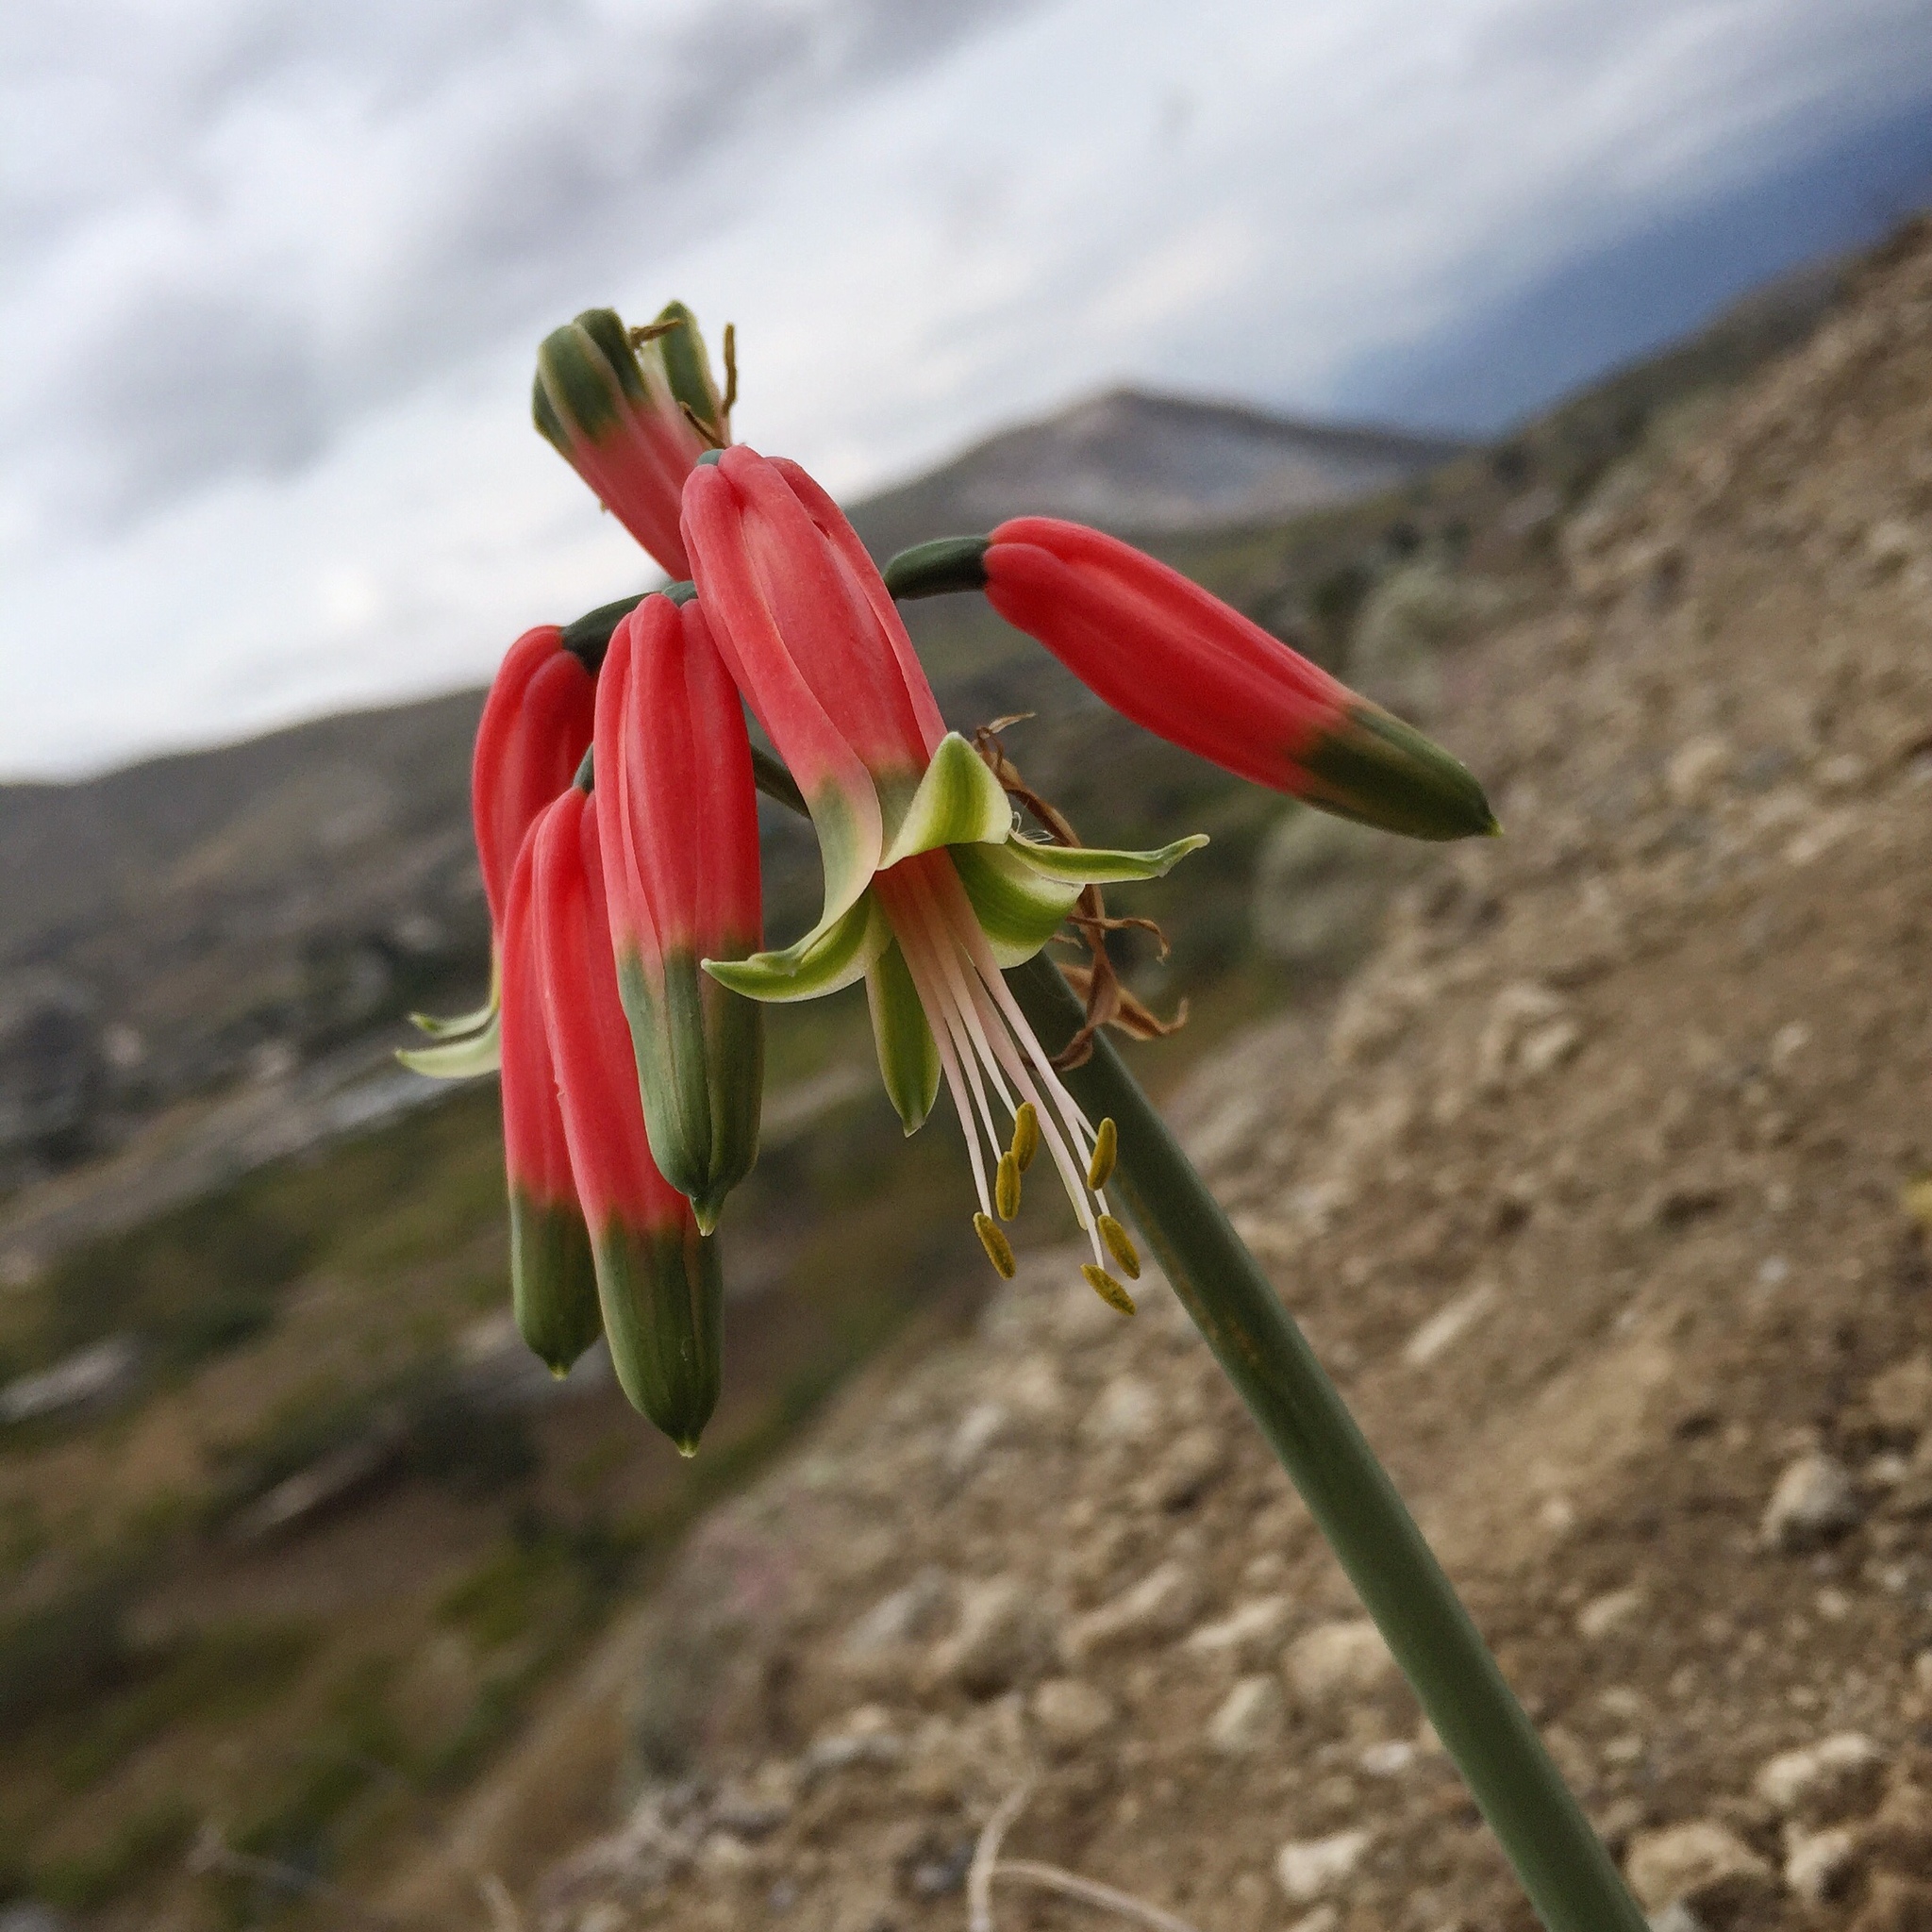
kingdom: Plantae
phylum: Tracheophyta
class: Liliopsida
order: Asparagales
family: Amaryllidaceae
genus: Phaedranassa
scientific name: Phaedranassa dubia
